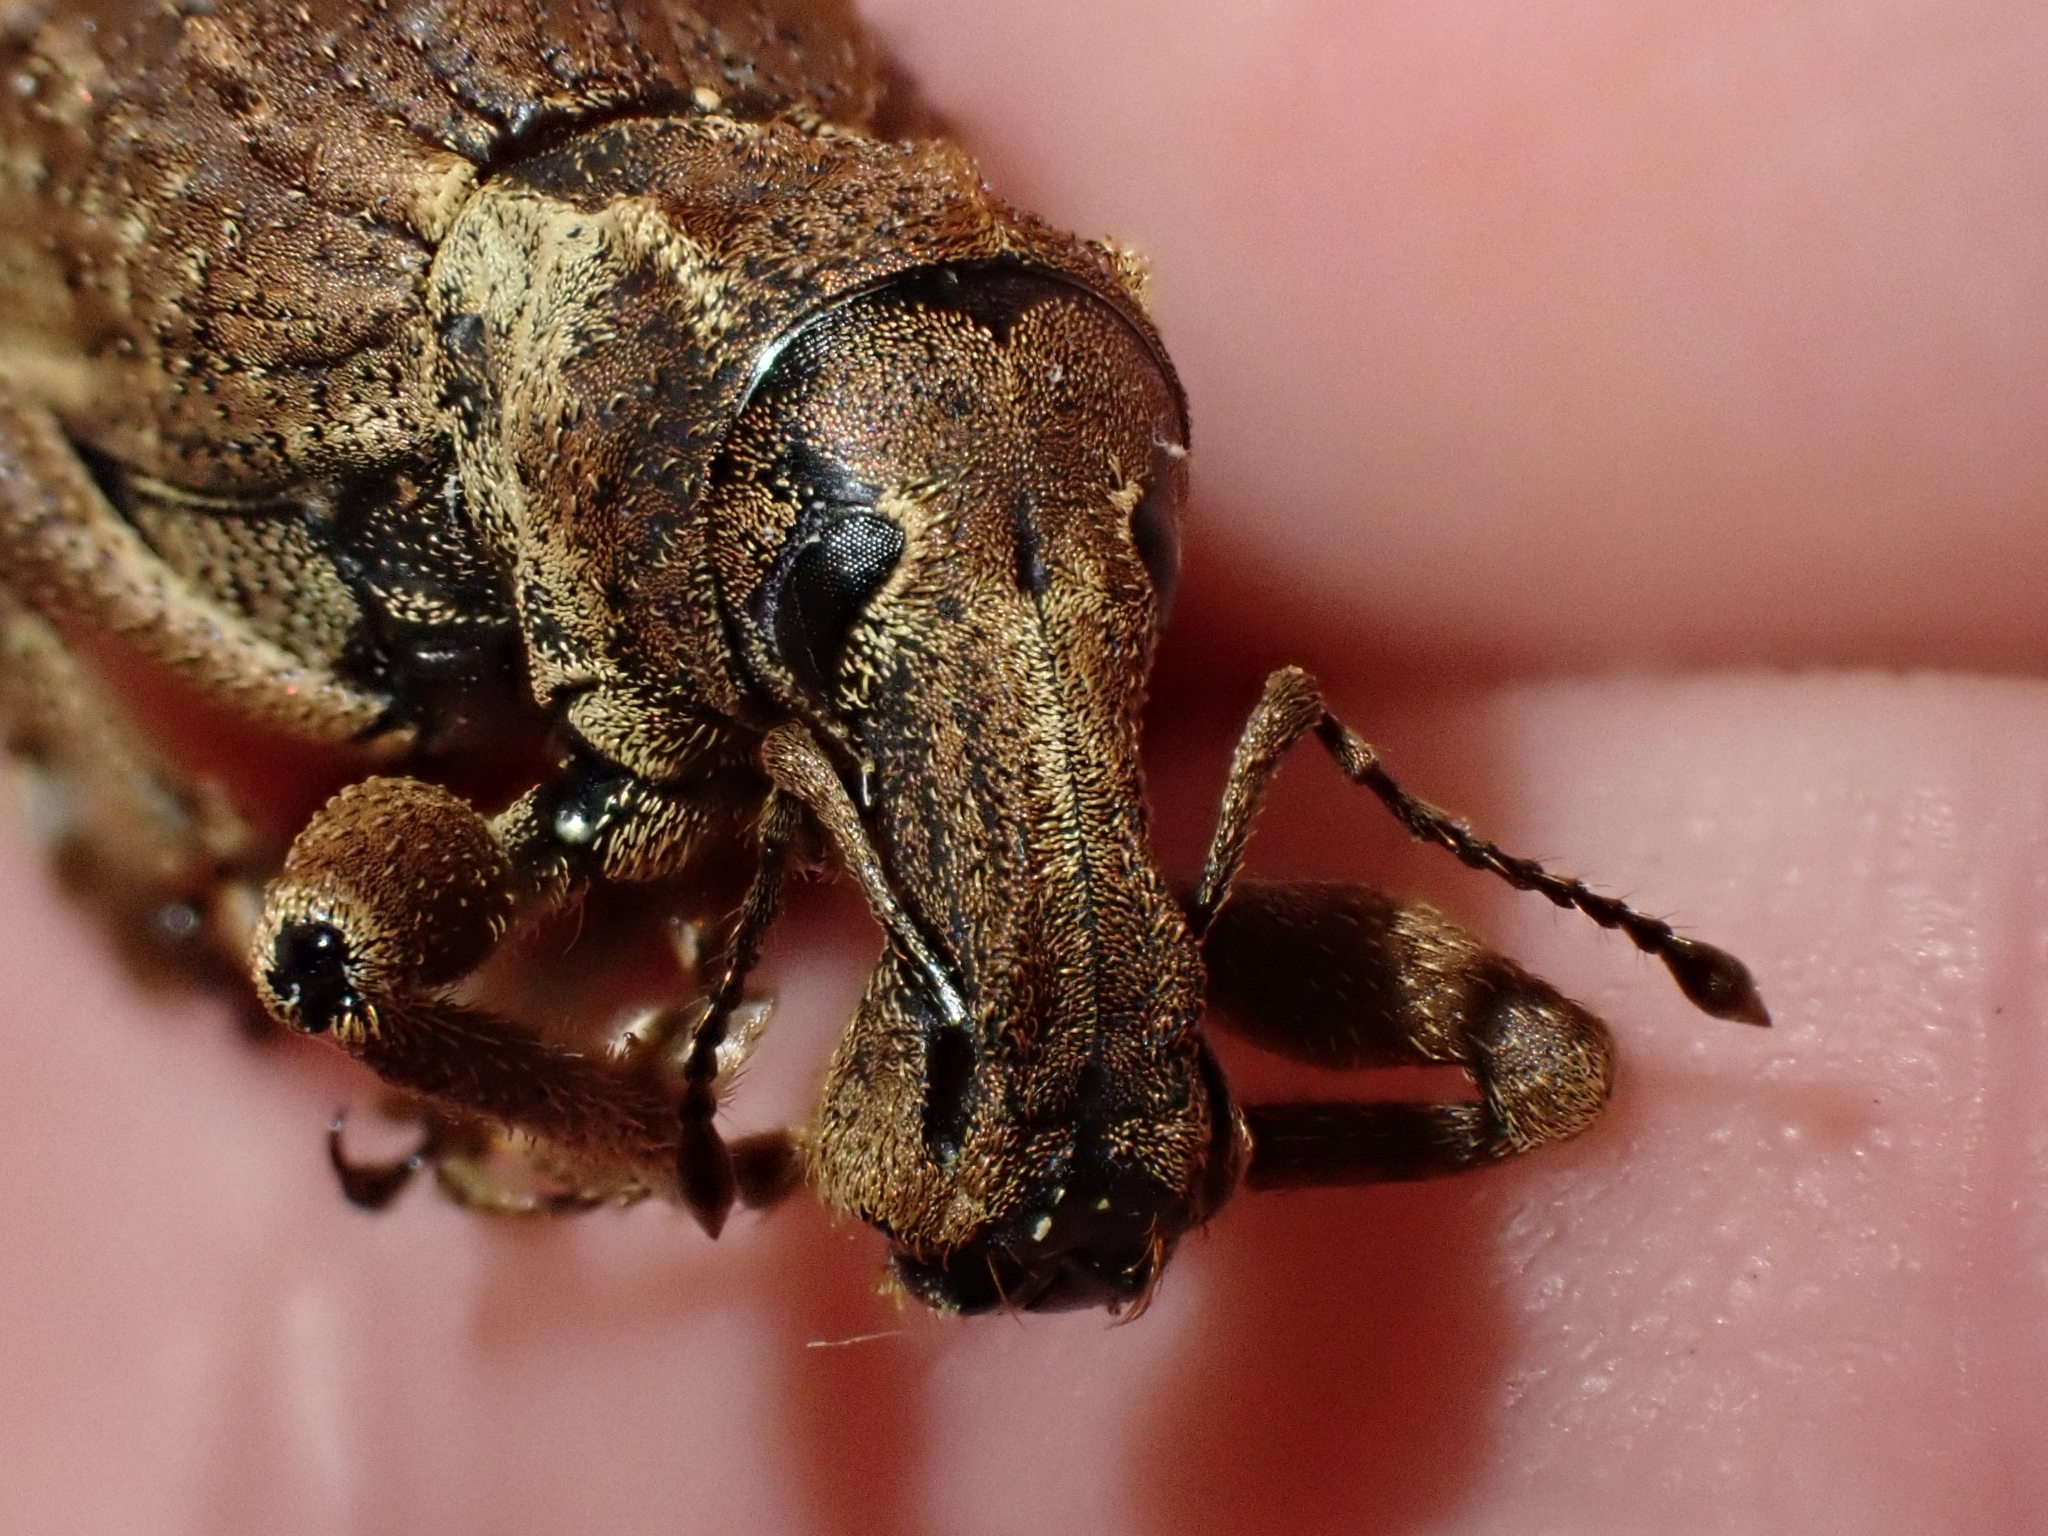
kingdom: Animalia
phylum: Arthropoda
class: Insecta
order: Coleoptera
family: Curculionidae
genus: Anagotus
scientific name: Anagotus fairburni
